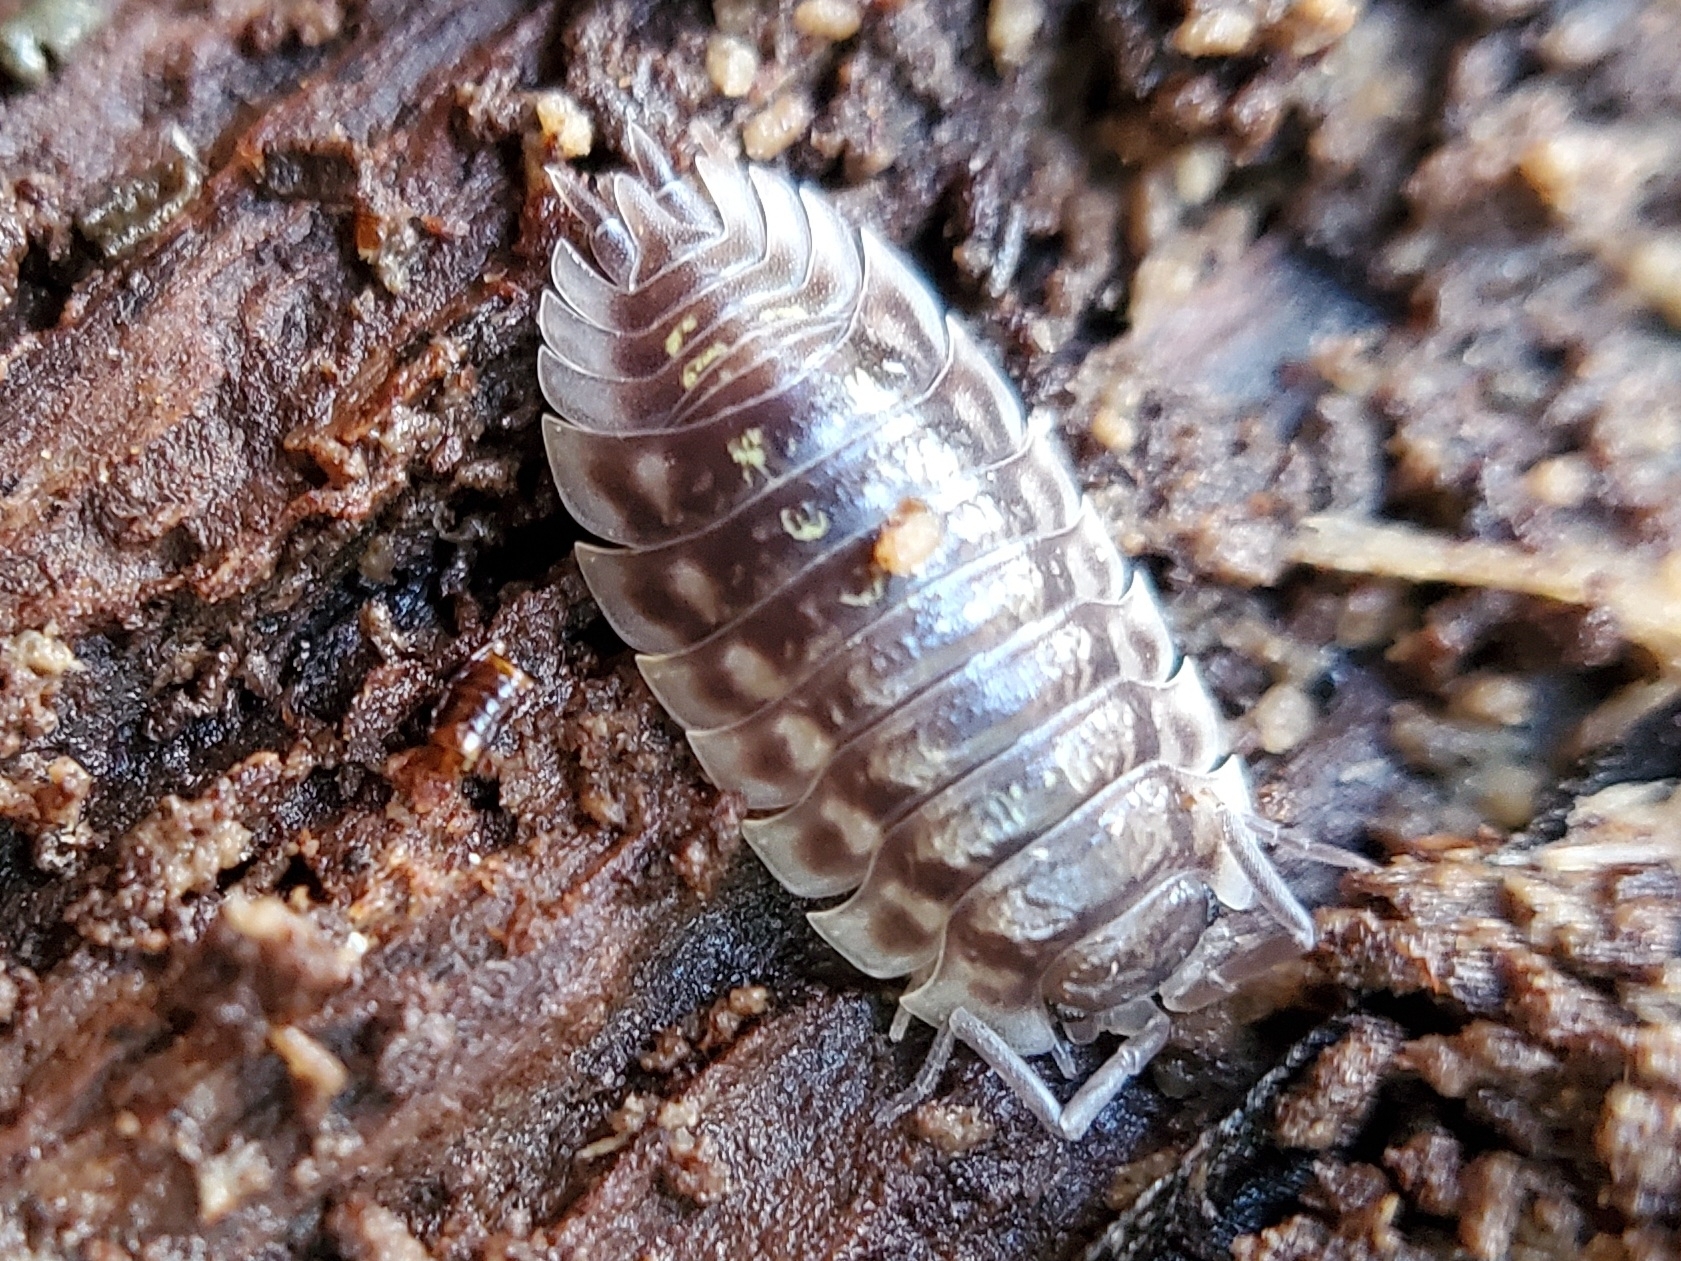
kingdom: Animalia
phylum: Arthropoda
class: Malacostraca
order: Isopoda
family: Oniscidae
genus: Oniscus
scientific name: Oniscus asellus
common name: Common shiny woodlouse
